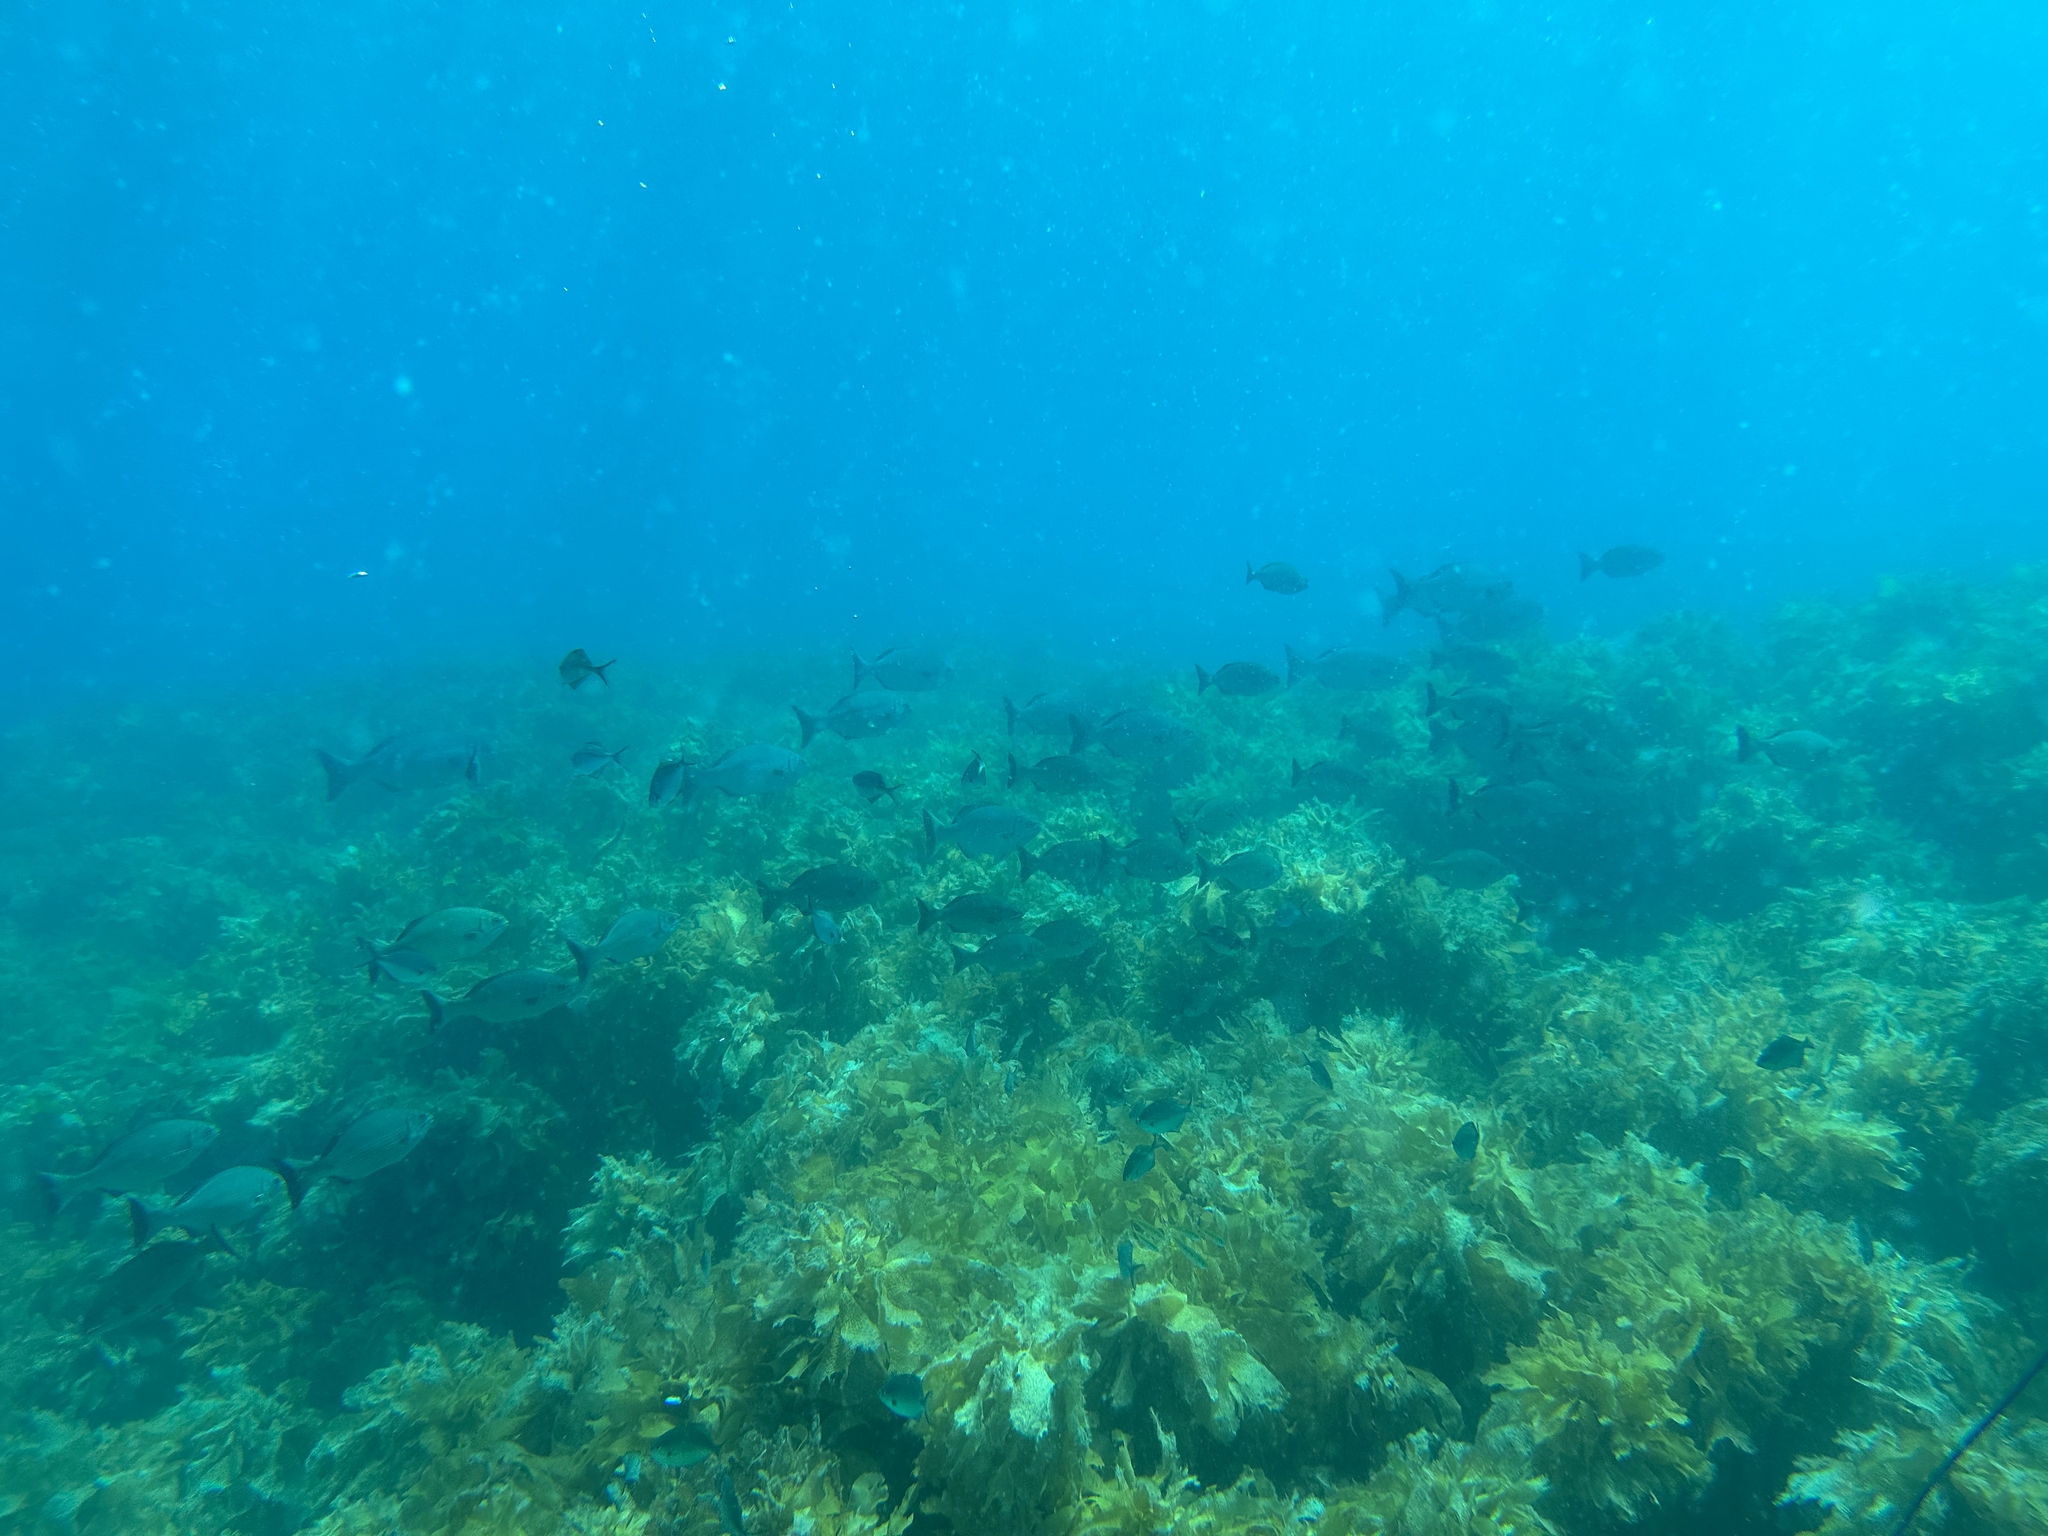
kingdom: Animalia
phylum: Chordata
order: Perciformes
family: Kyphosidae
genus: Kyphosus
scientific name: Kyphosus sydneyanus
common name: Silver drummer
